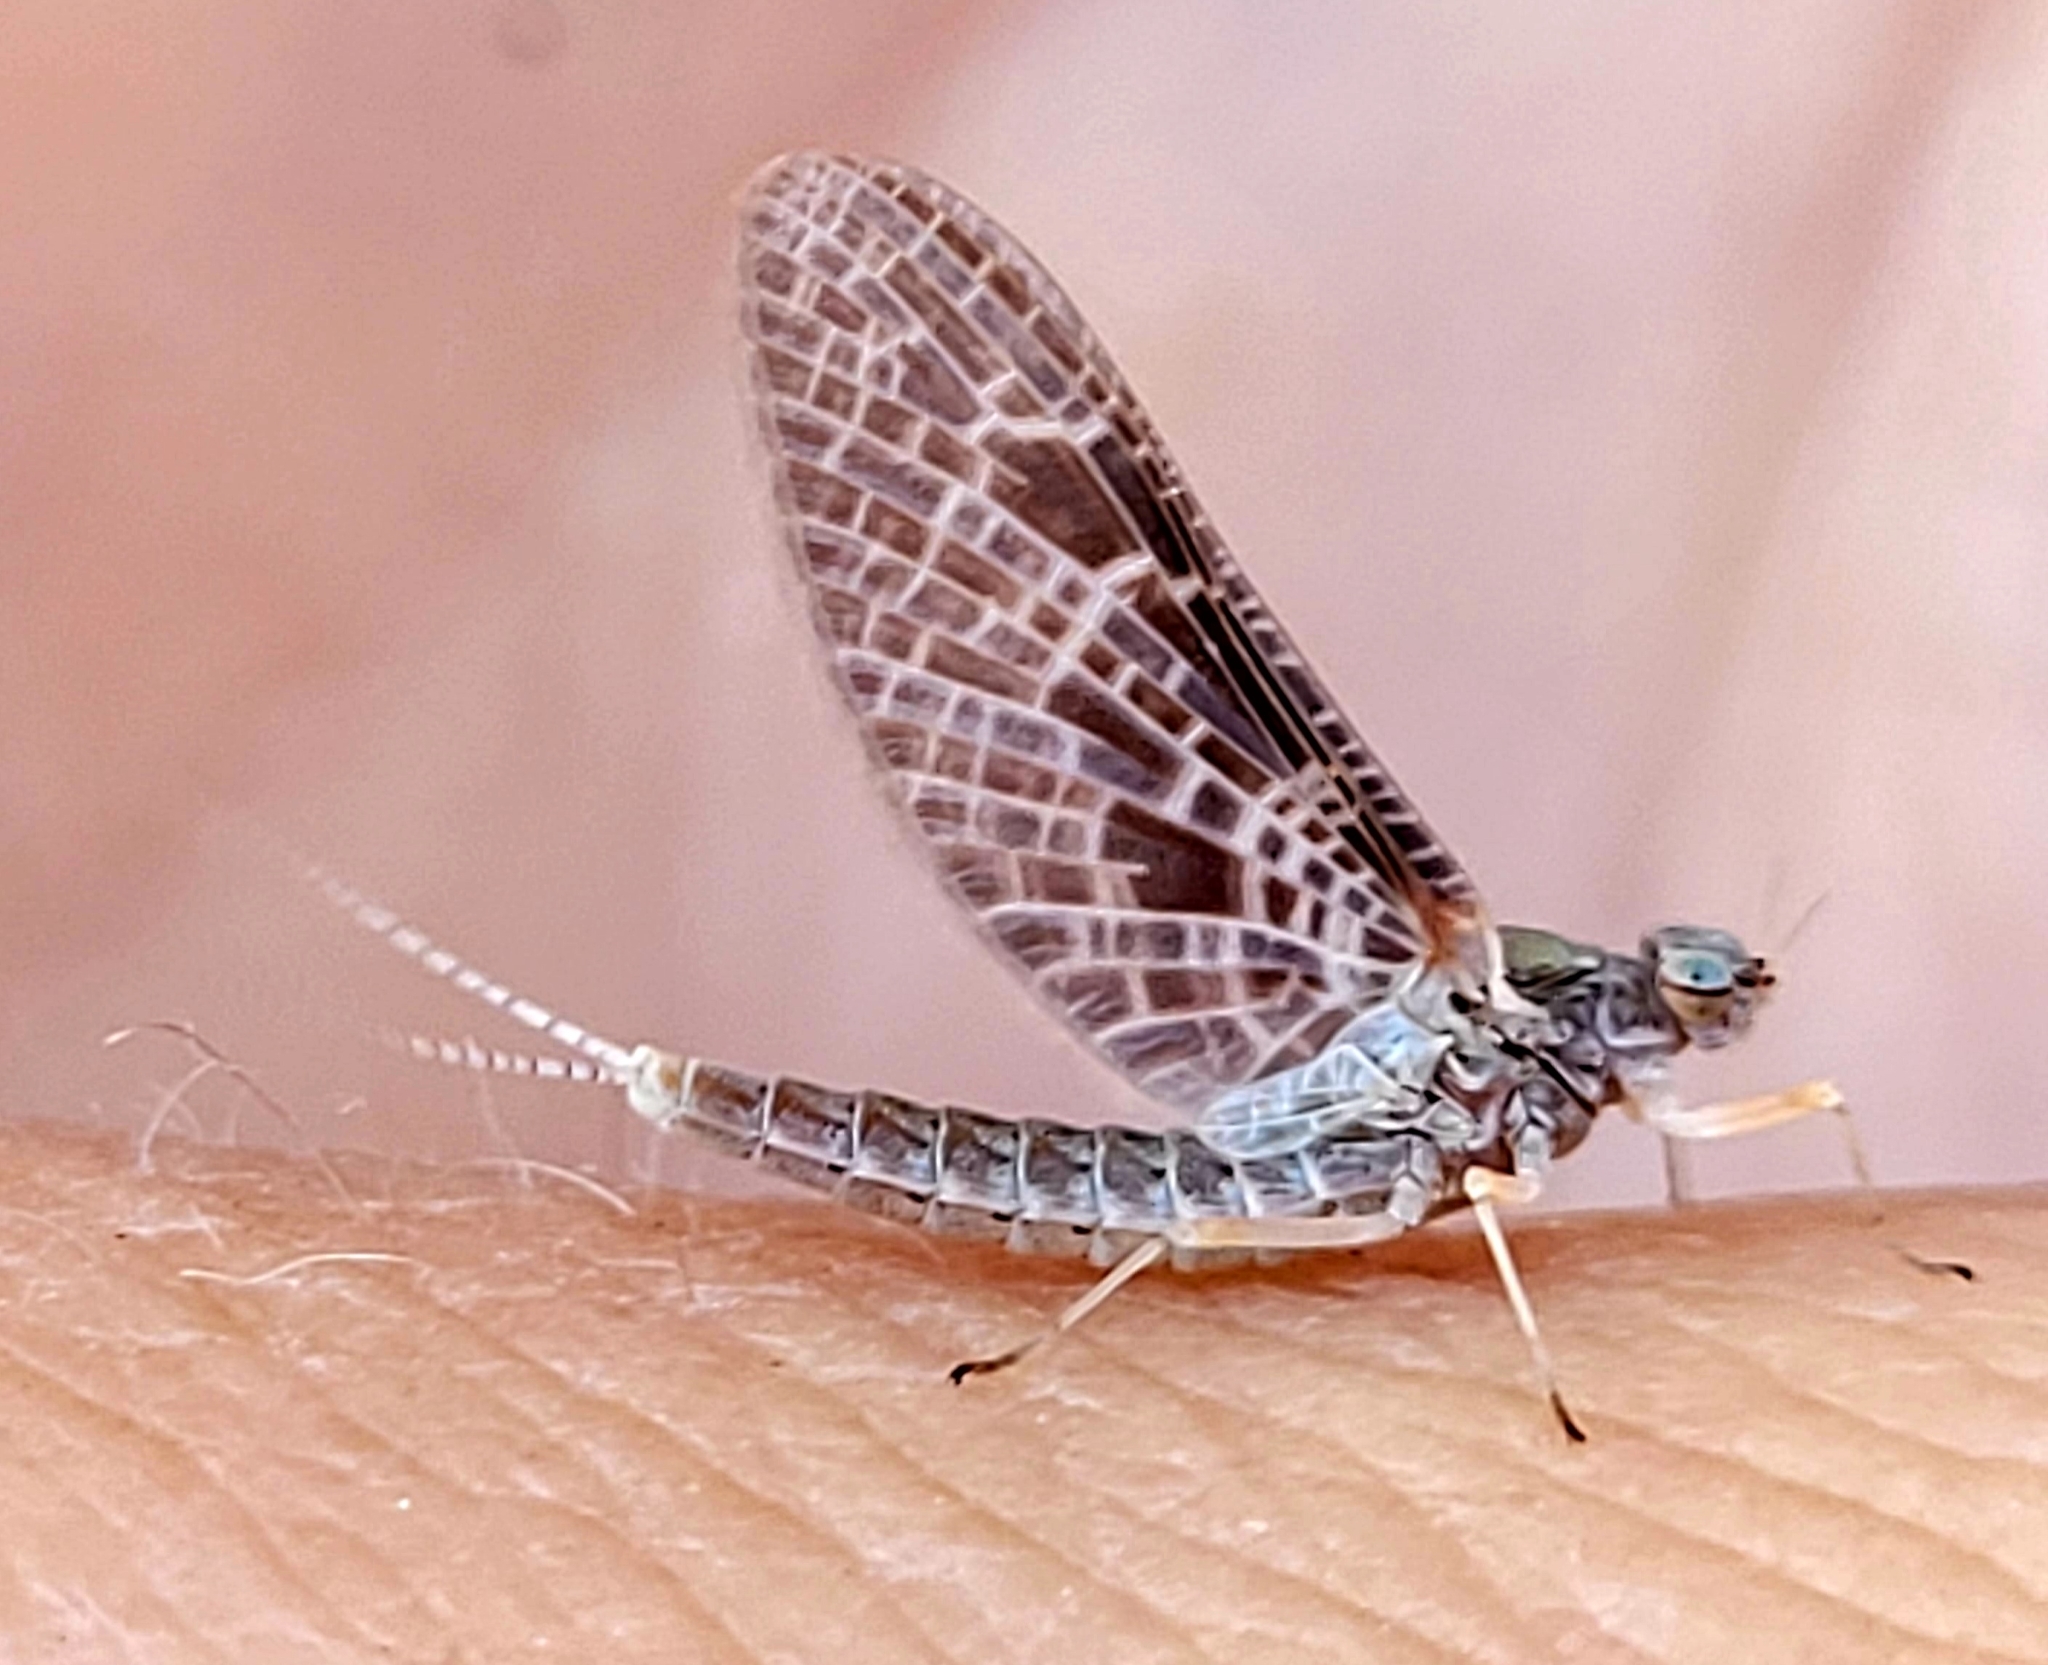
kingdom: Animalia
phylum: Arthropoda
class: Insecta
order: Ephemeroptera
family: Baetidae
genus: Callibaetis
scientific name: Callibaetis ferrugineus
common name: Red speckled dun
